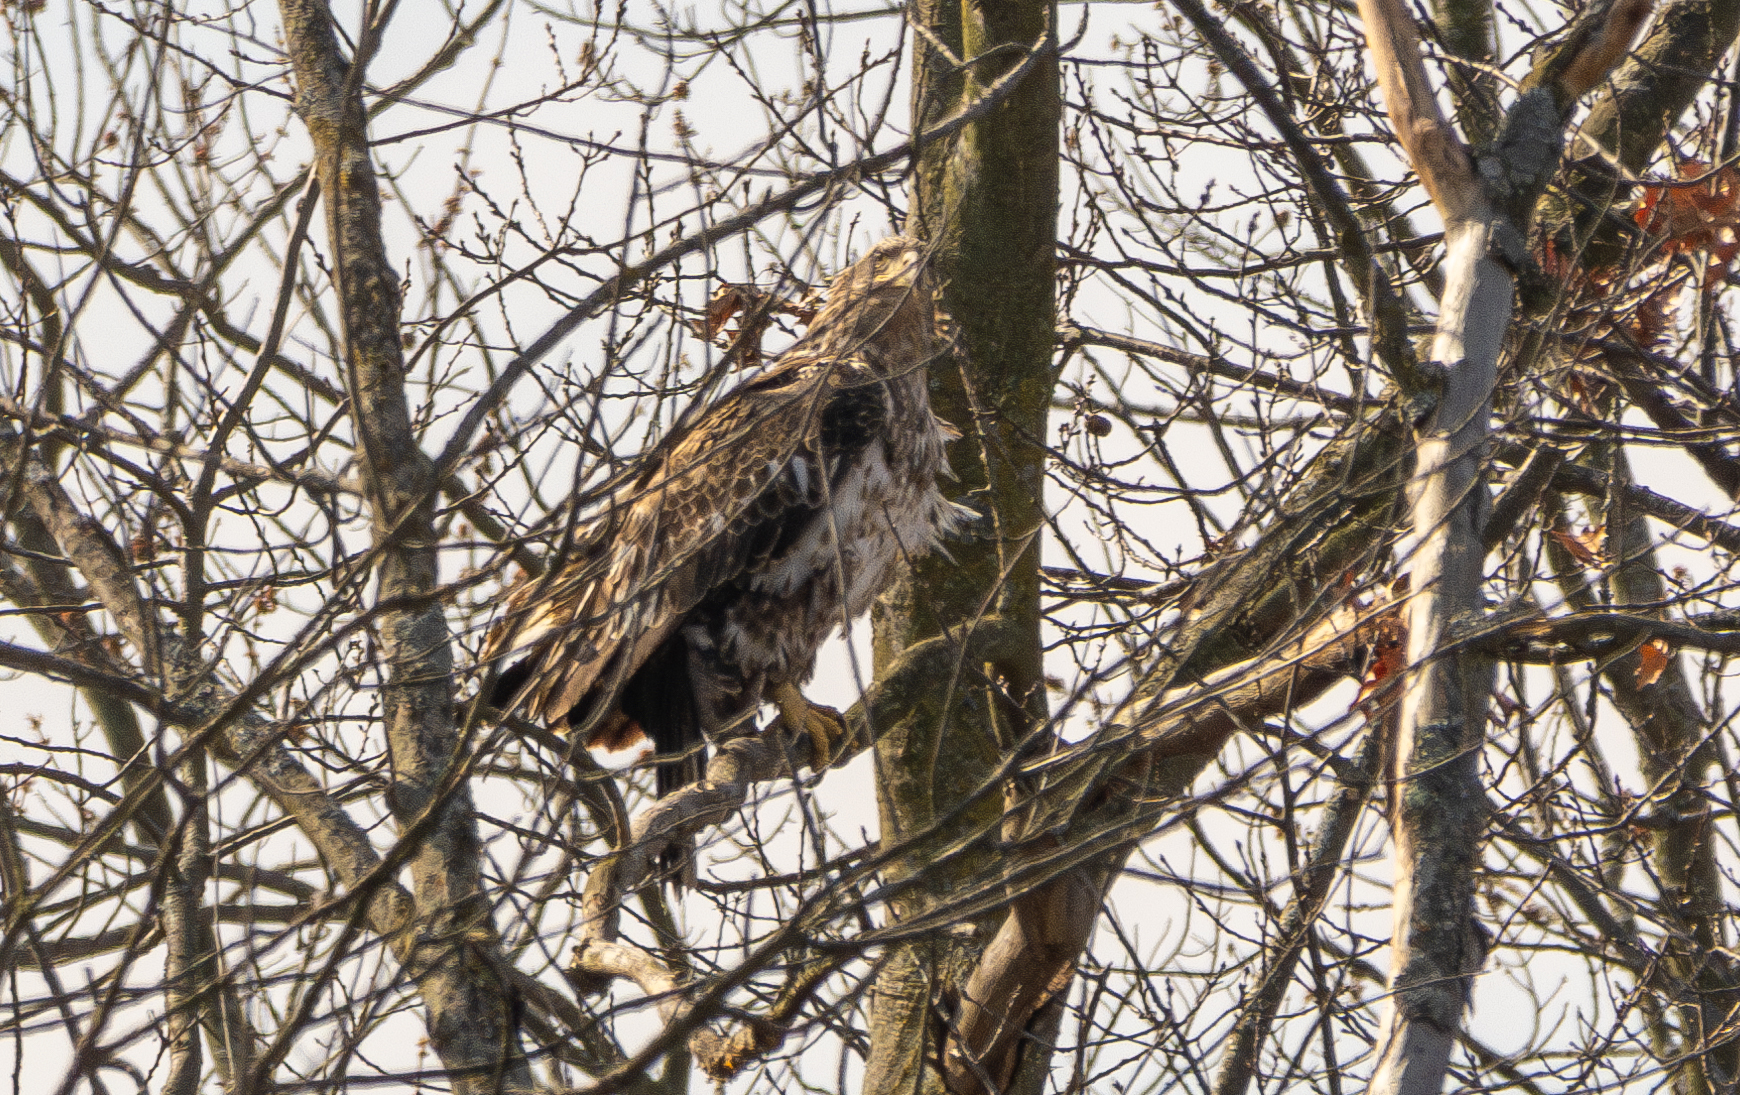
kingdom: Animalia
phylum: Chordata
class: Aves
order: Accipitriformes
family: Accipitridae
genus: Haliaeetus
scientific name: Haliaeetus leucocephalus
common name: Bald eagle
